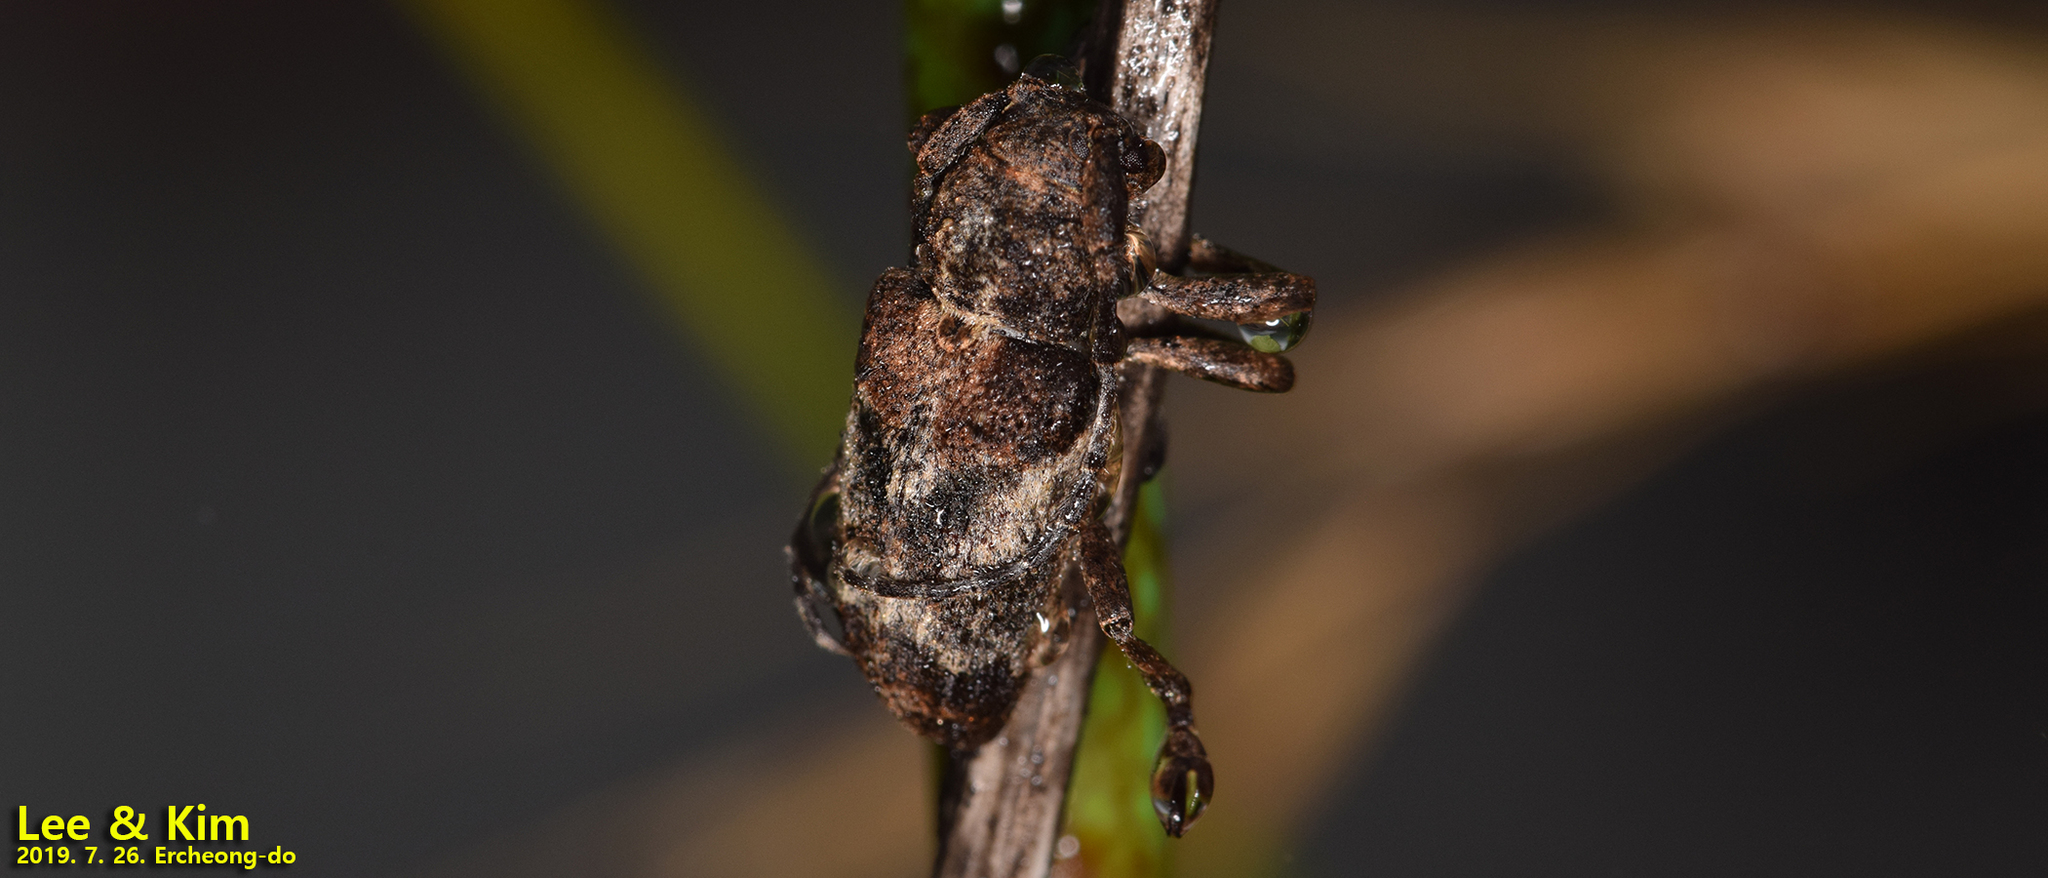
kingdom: Animalia
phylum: Arthropoda
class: Insecta
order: Coleoptera
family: Cerambycidae
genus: Pterolophia
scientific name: Pterolophia annulata
